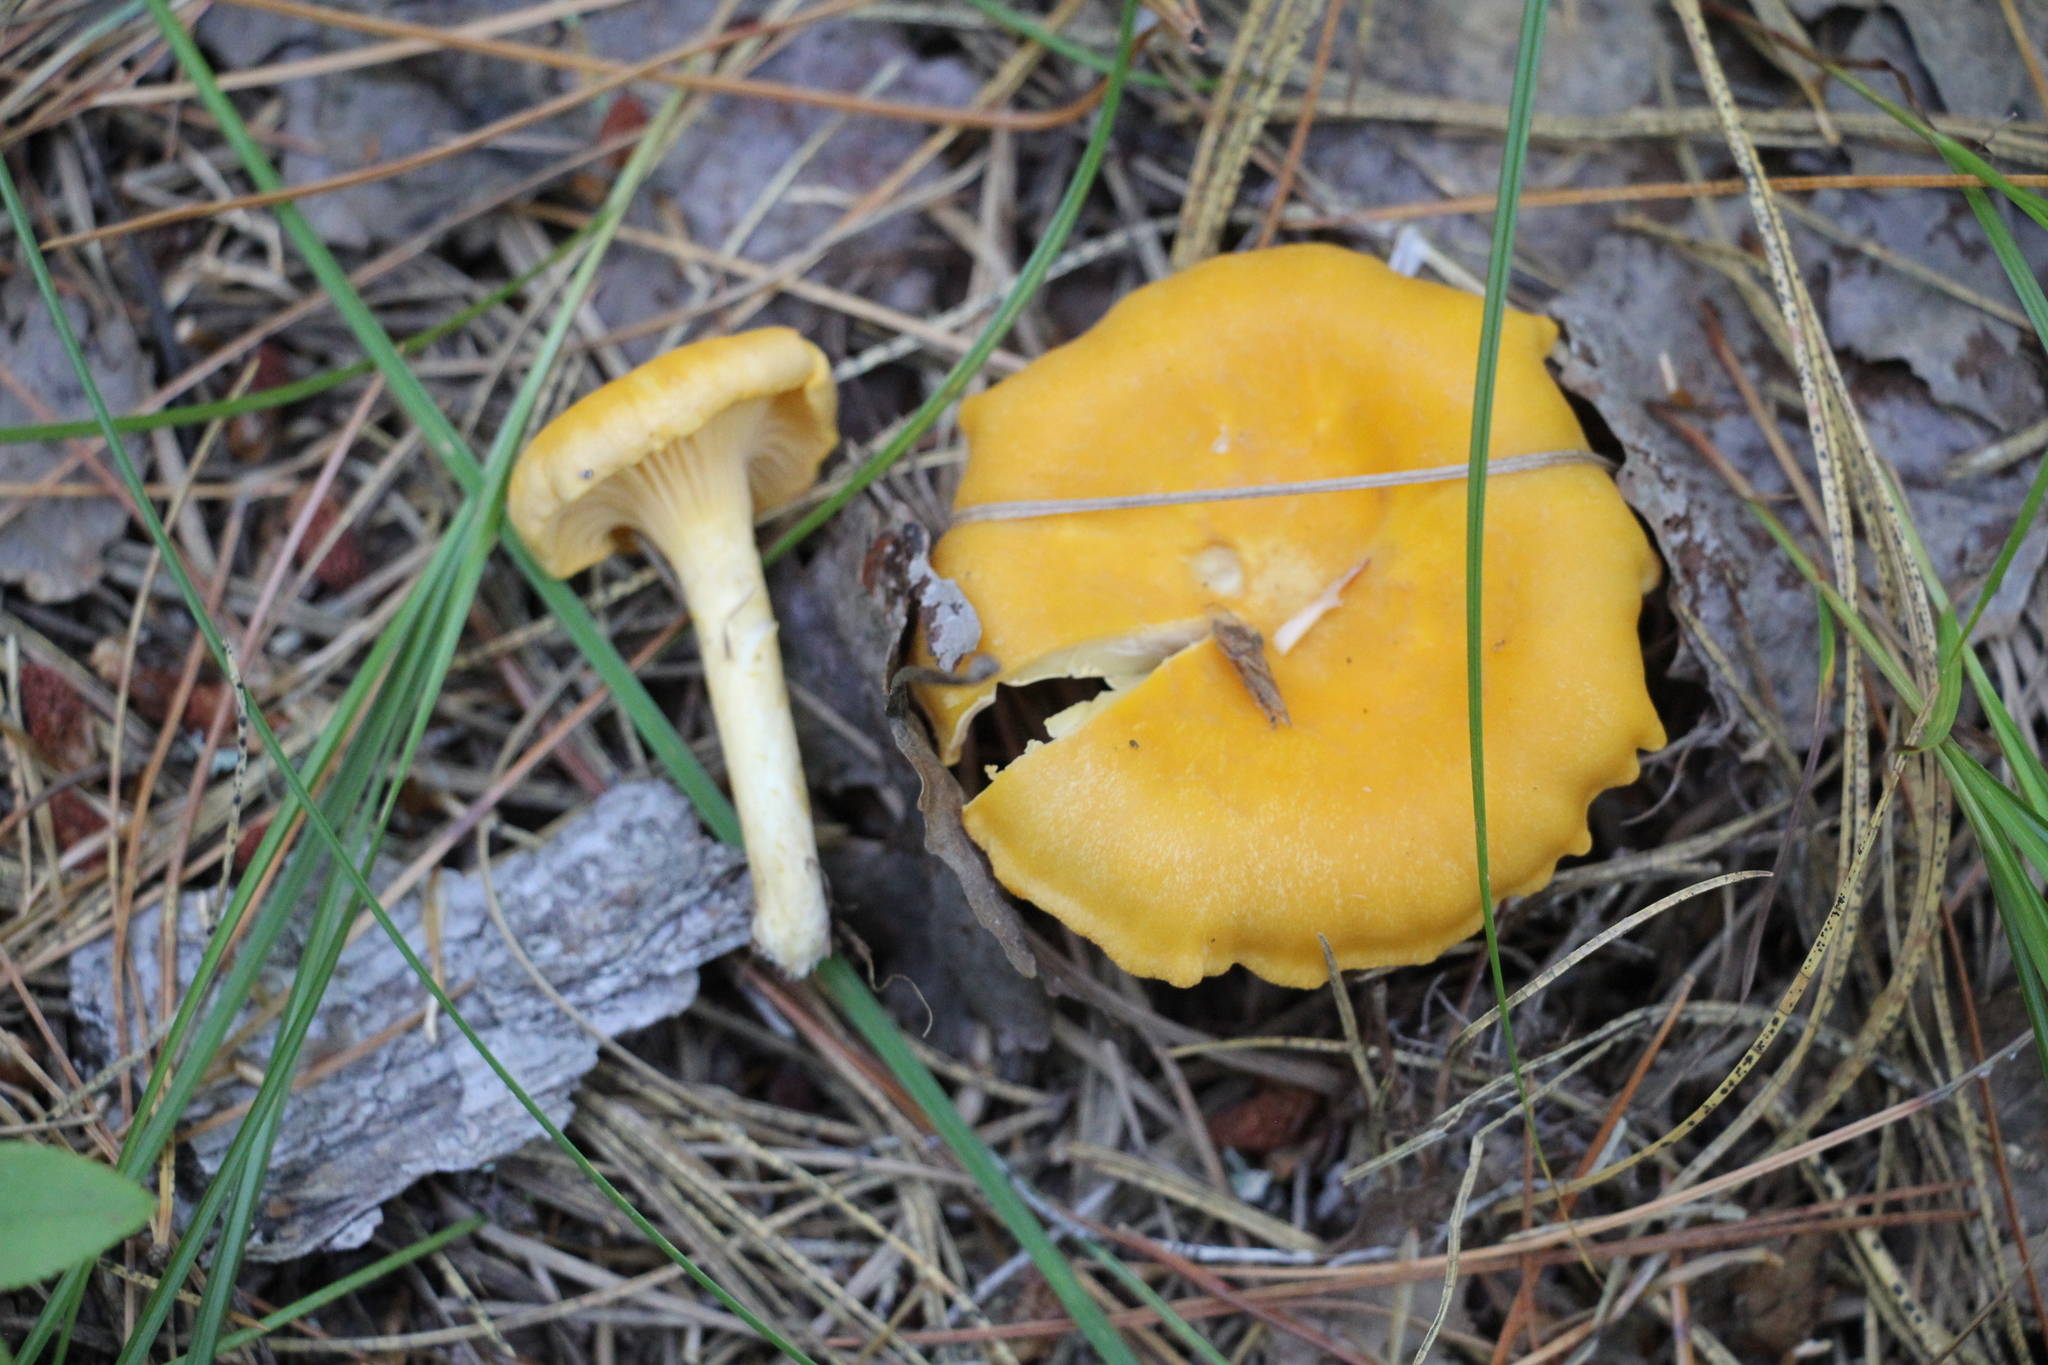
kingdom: Fungi
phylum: Basidiomycota
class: Agaricomycetes
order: Cantharellales
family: Hydnaceae
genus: Cantharellus
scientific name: Cantharellus cibarius
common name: Chanterelle
